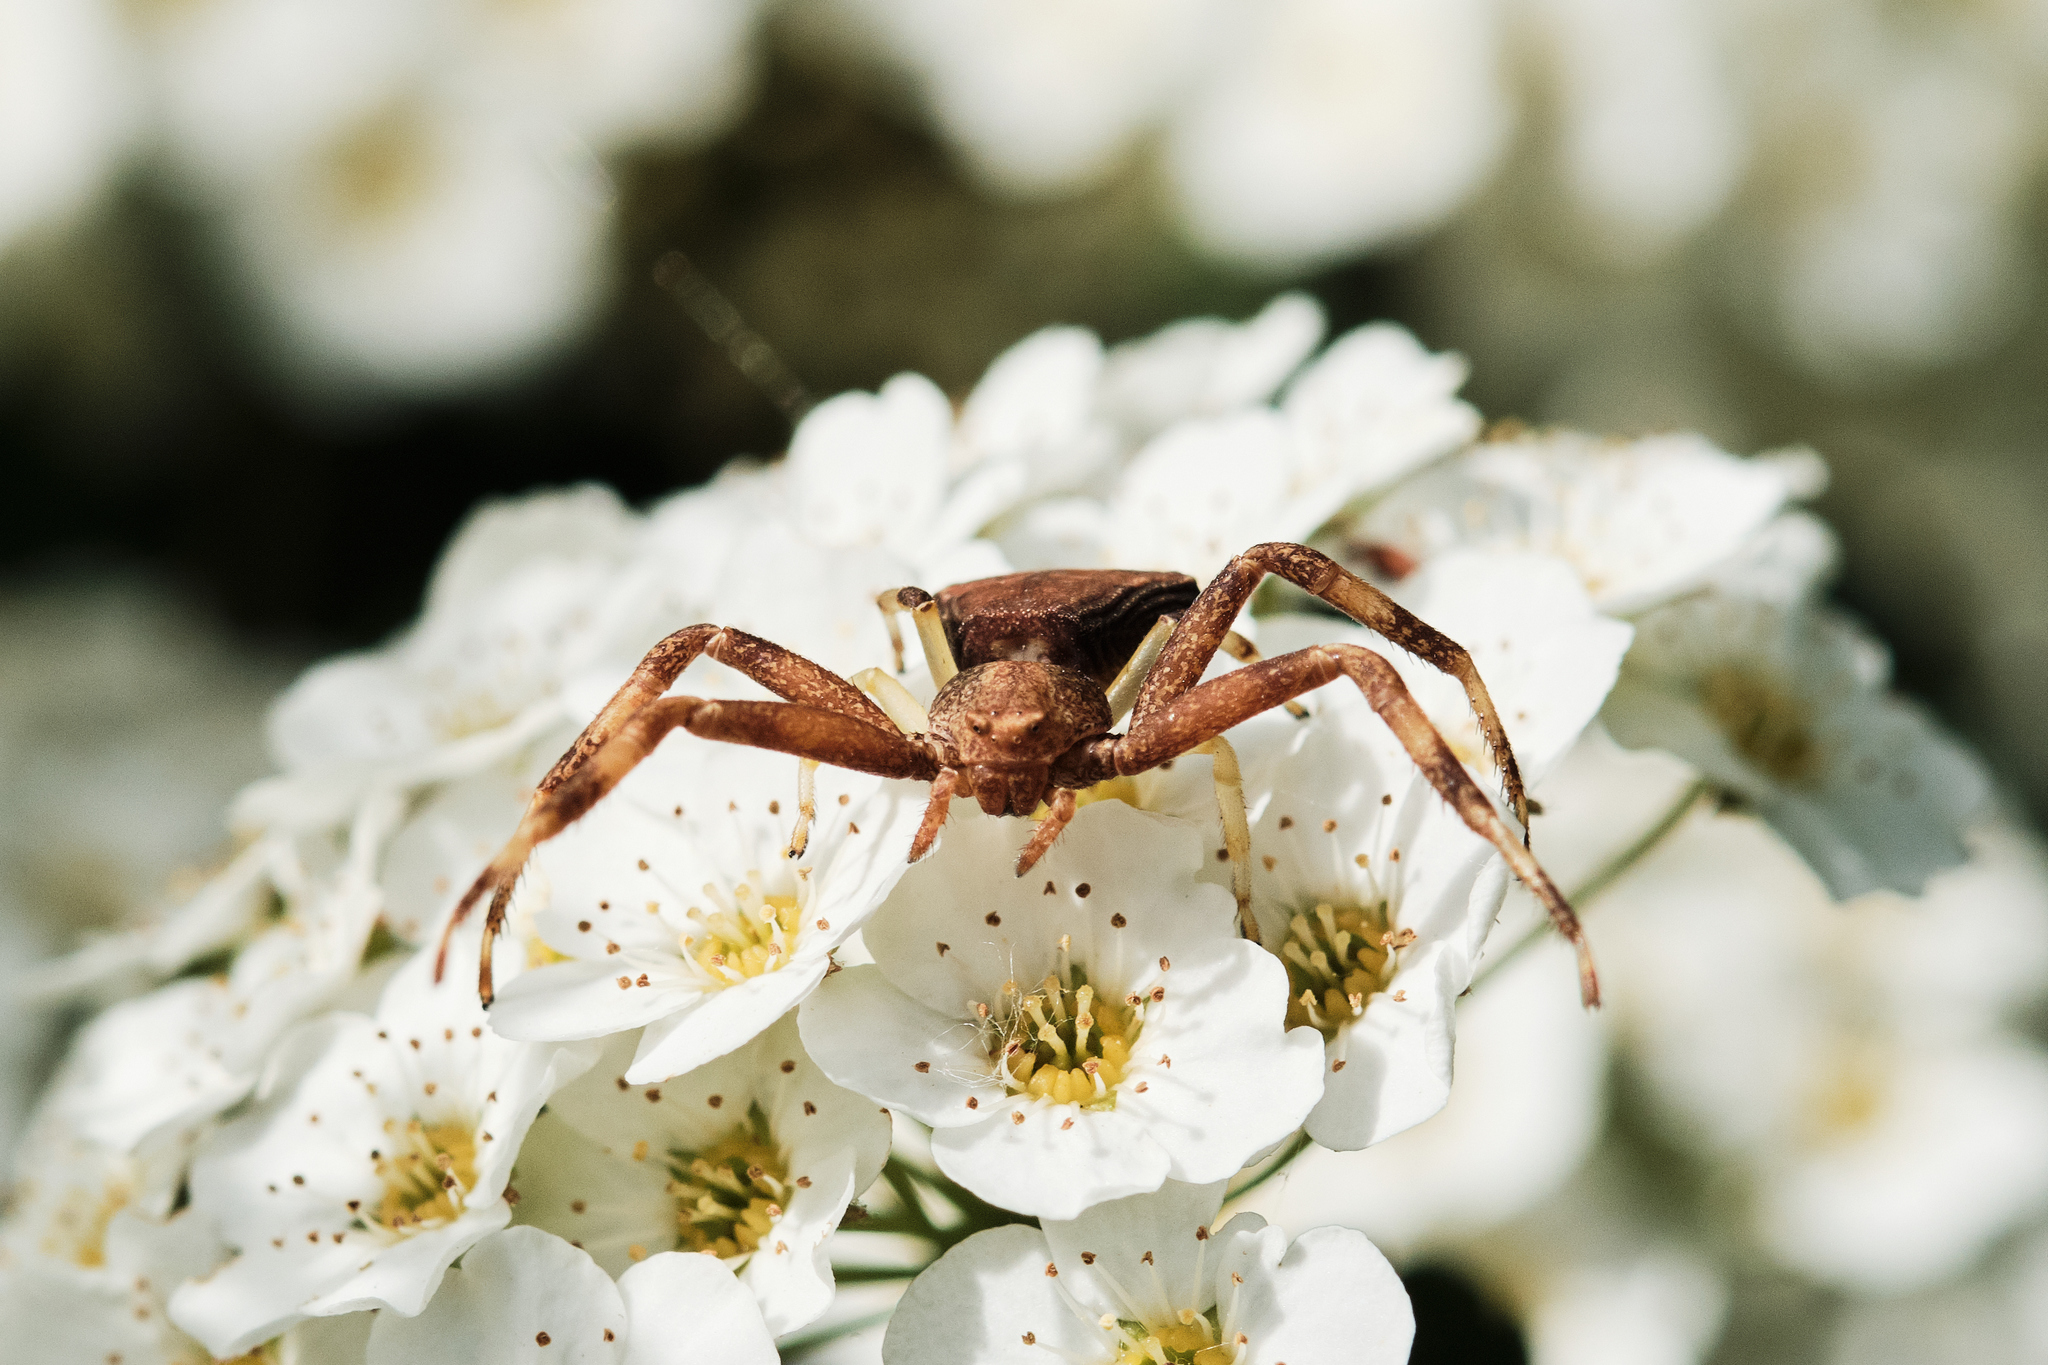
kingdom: Animalia
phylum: Arthropoda
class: Arachnida
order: Araneae
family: Thomisidae
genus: Pistius
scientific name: Pistius truncatus
